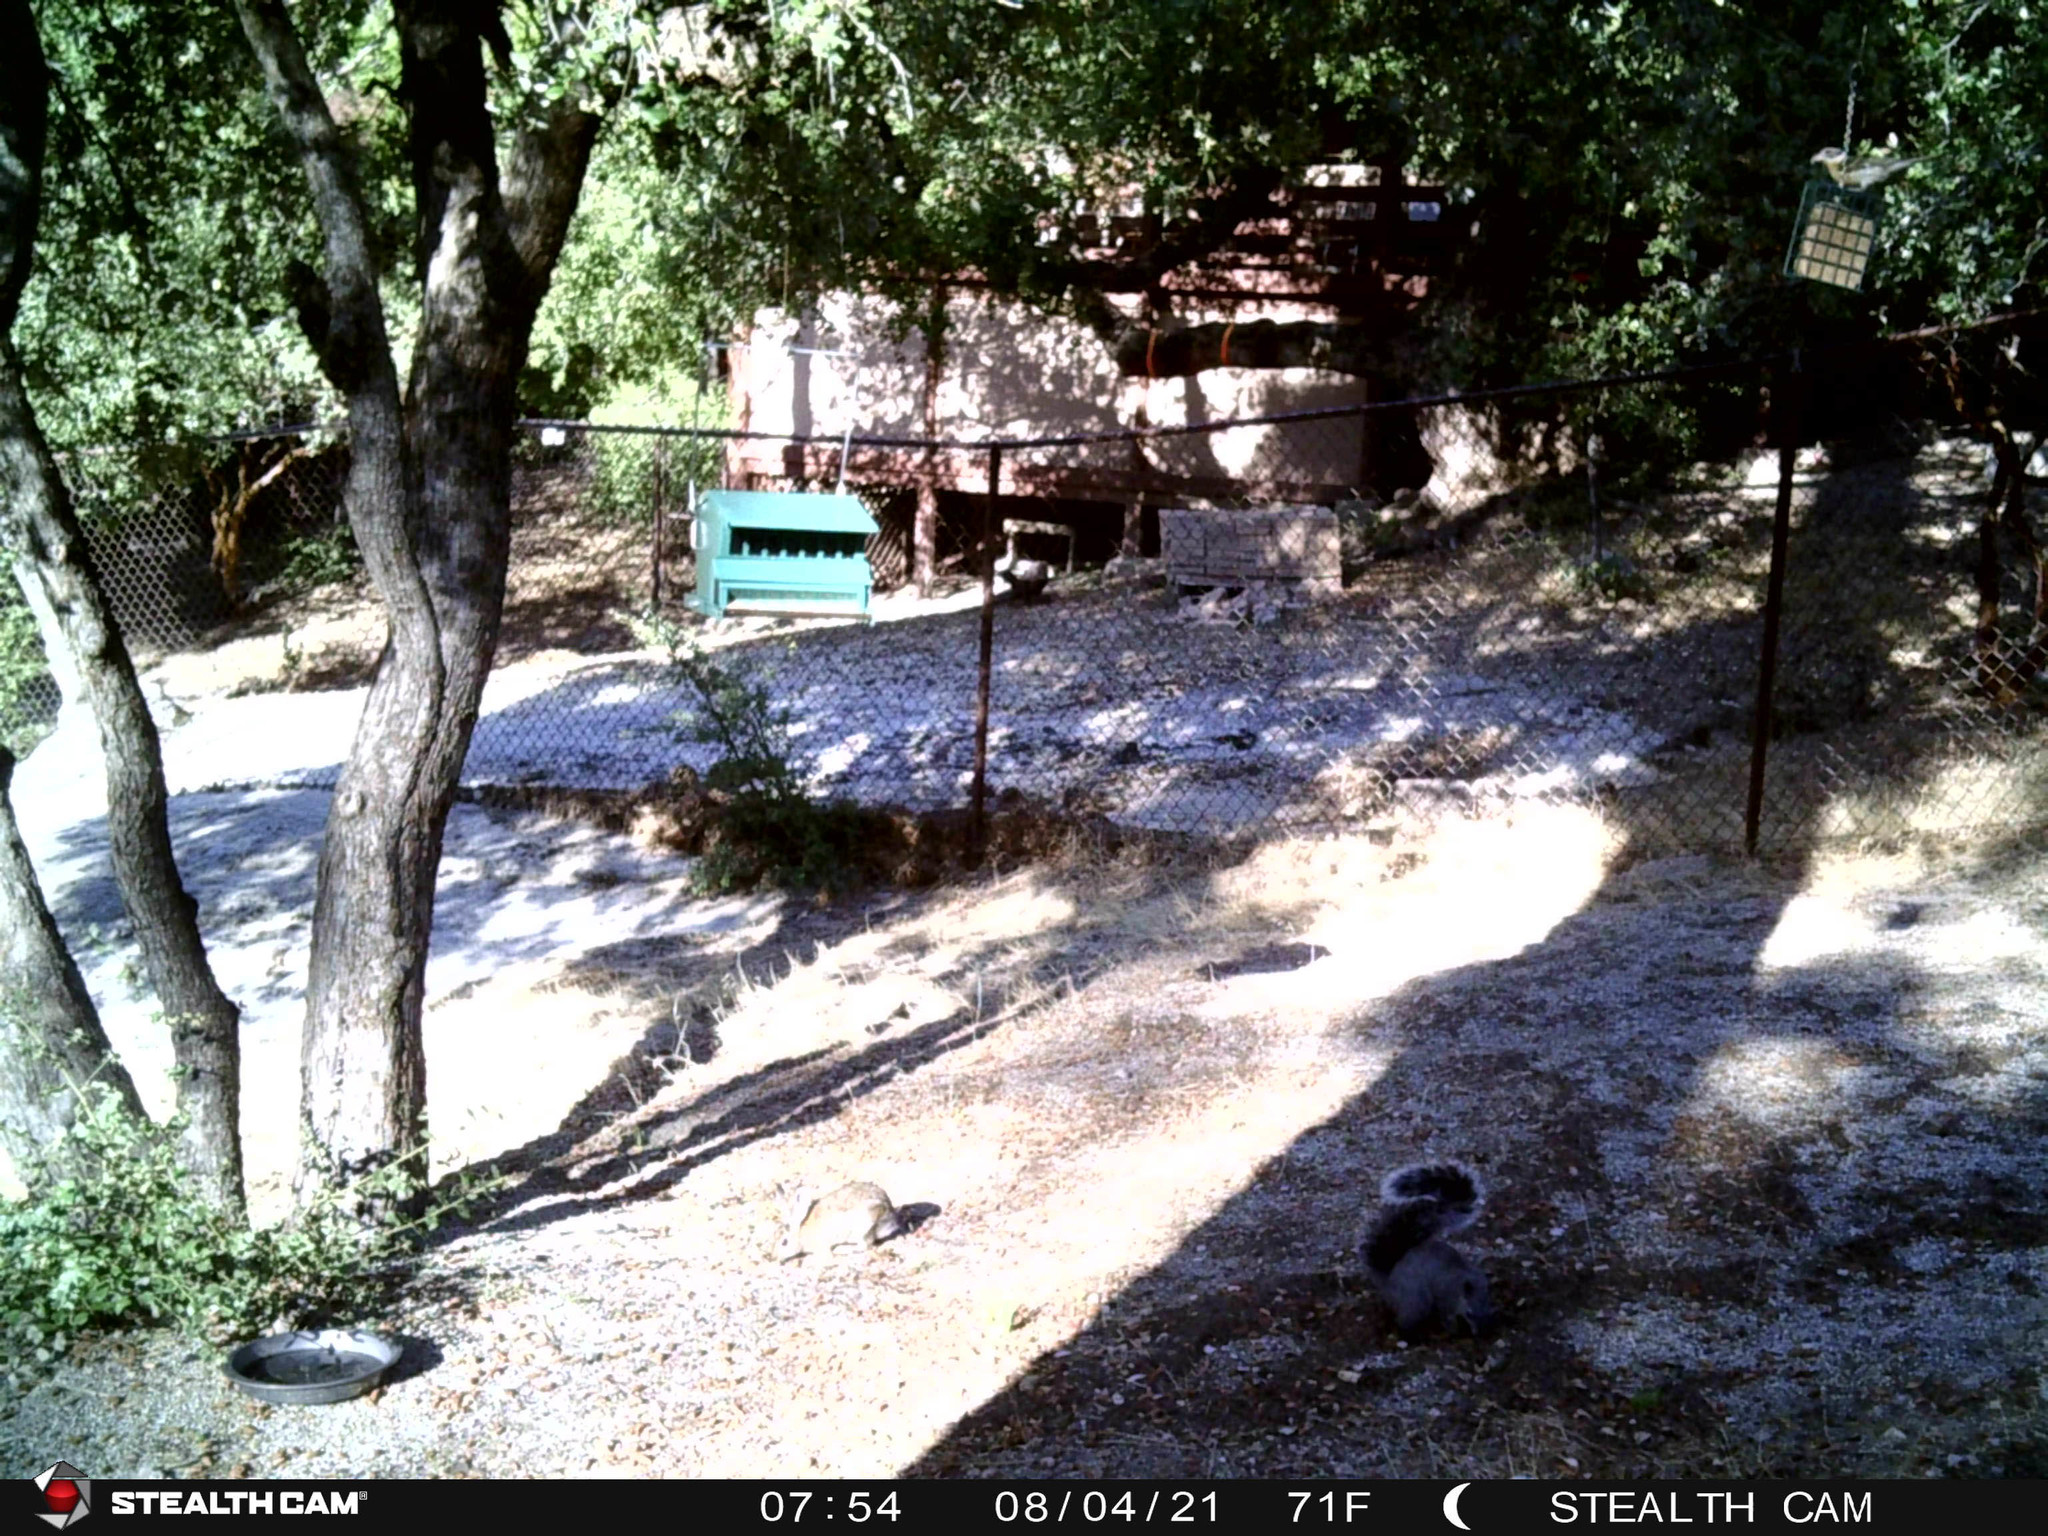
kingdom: Animalia
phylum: Chordata
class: Mammalia
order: Rodentia
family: Sciuridae
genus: Sciurus
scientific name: Sciurus griseus
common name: Western gray squirrel
